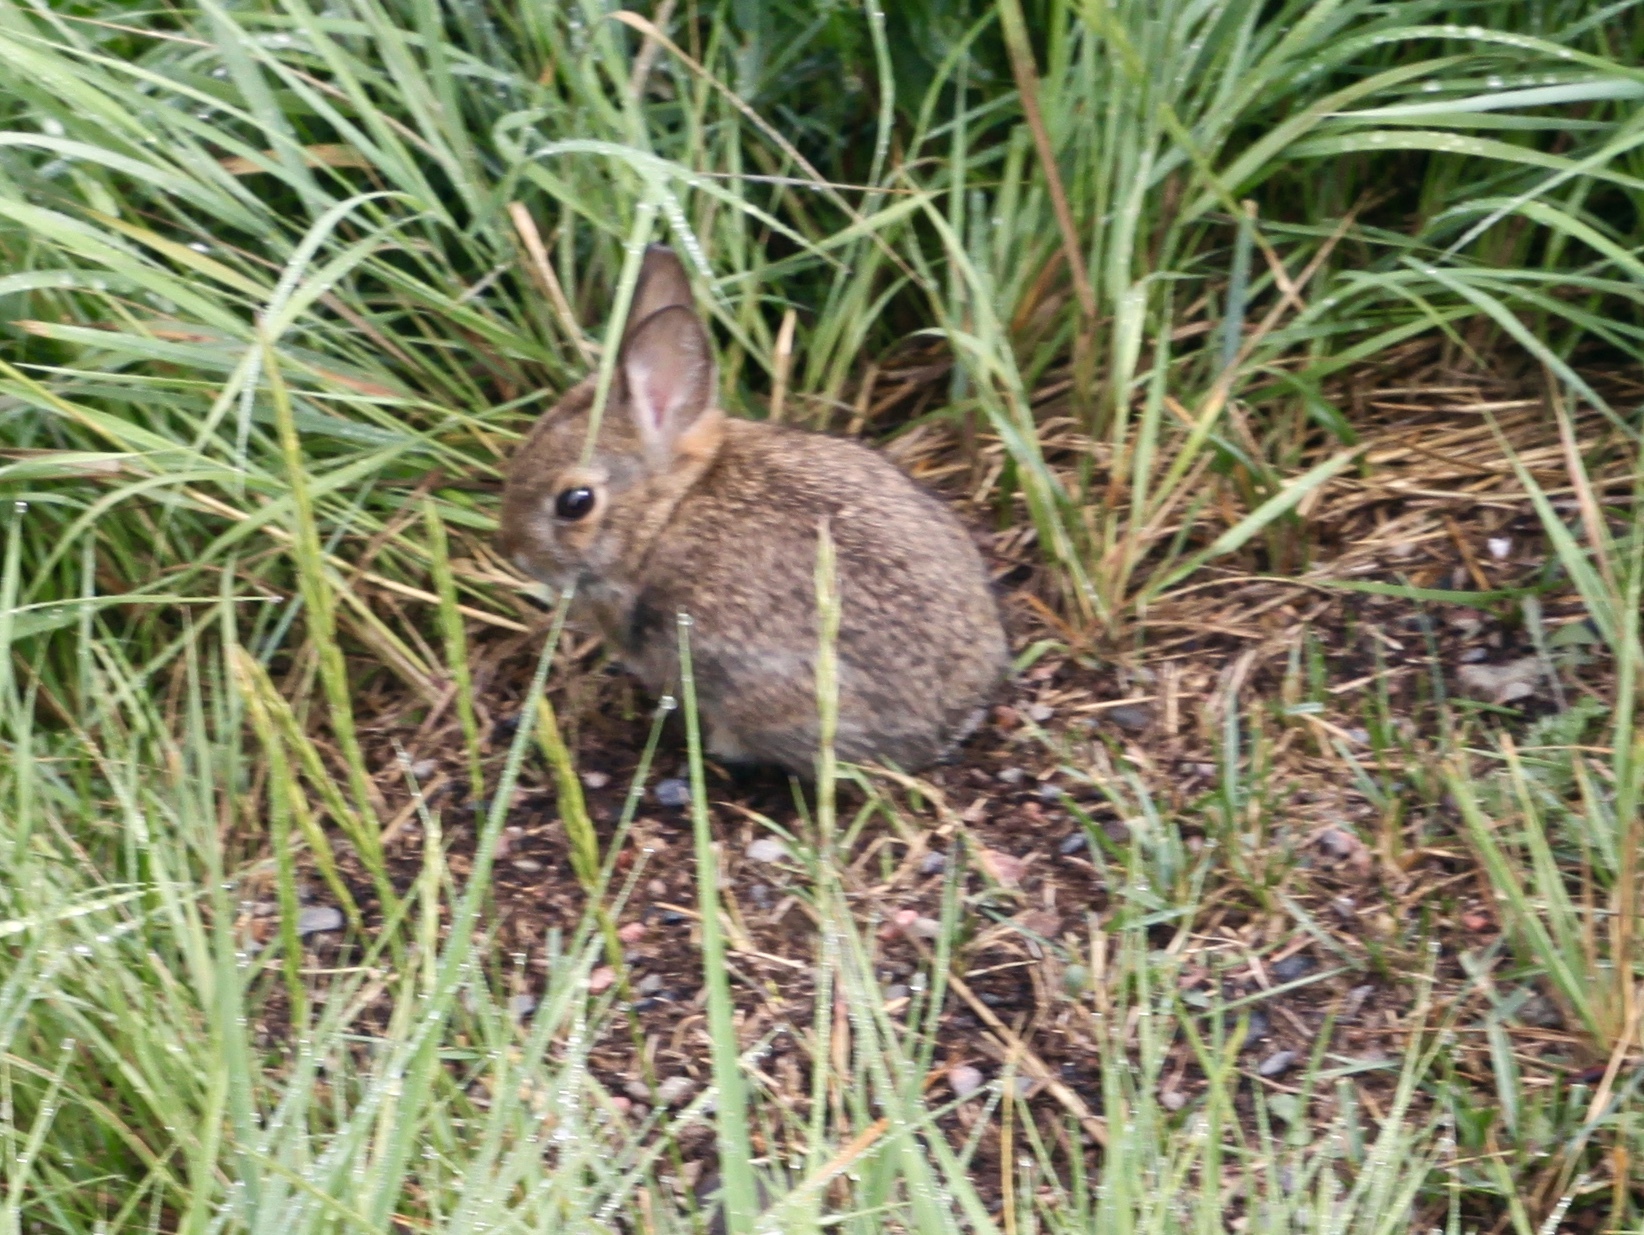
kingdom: Animalia
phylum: Chordata
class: Mammalia
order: Lagomorpha
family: Leporidae
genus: Sylvilagus
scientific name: Sylvilagus nuttallii
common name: Mountain cottontail
